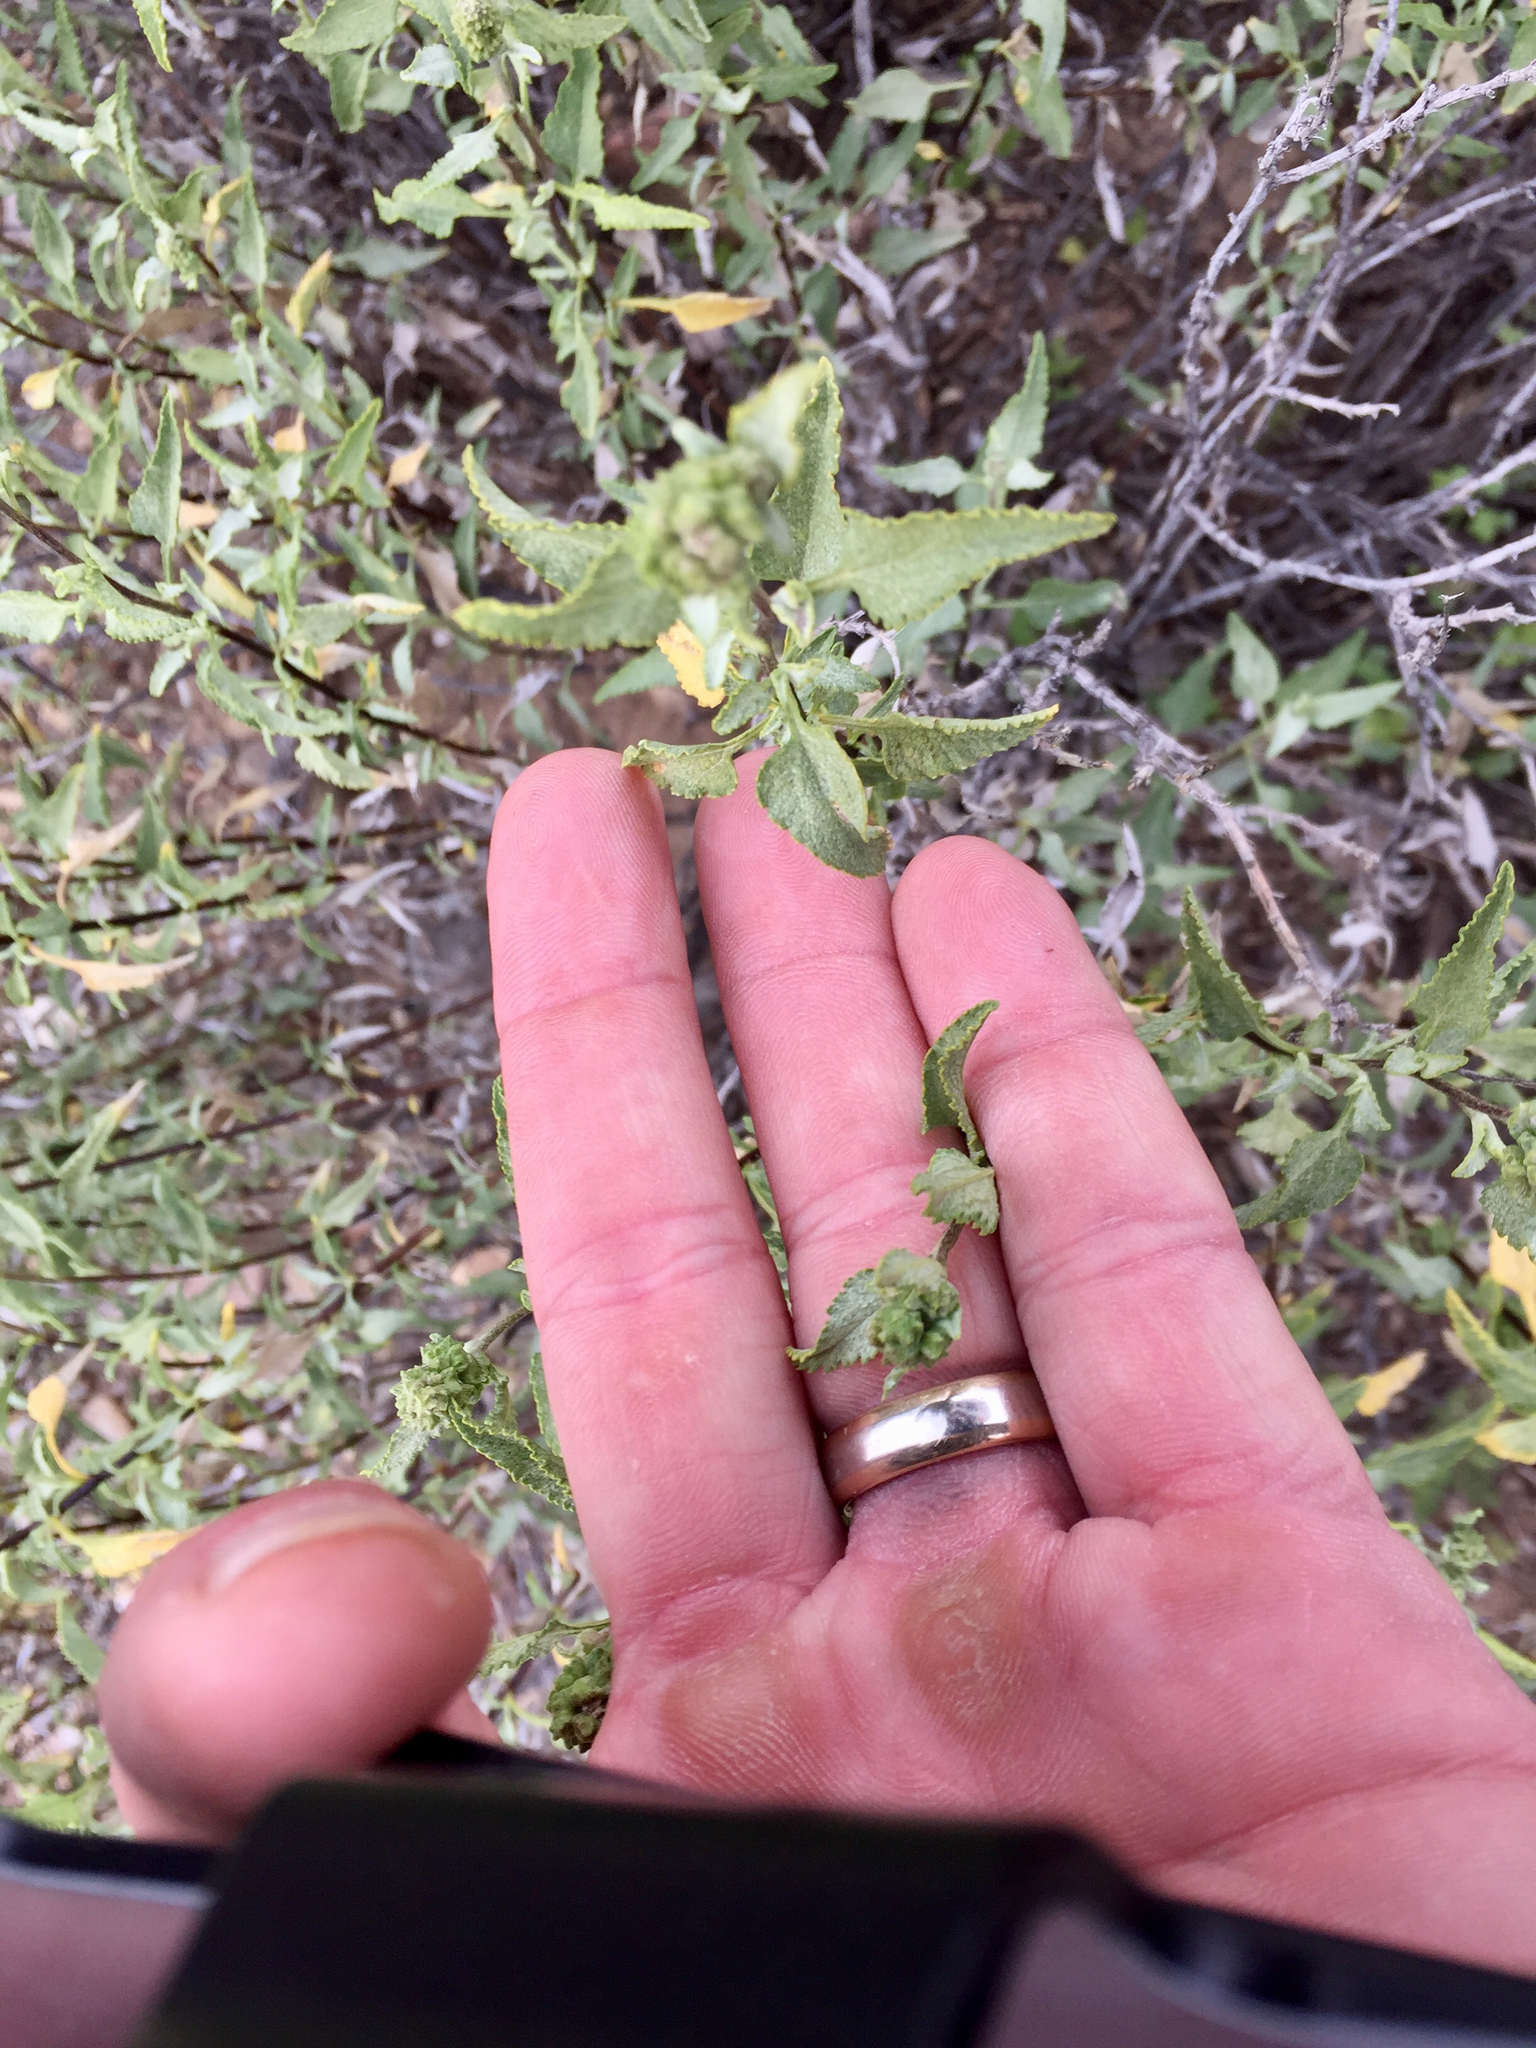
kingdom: Plantae
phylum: Tracheophyta
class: Magnoliopsida
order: Asterales
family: Asteraceae
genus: Ambrosia
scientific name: Ambrosia deltoidea
